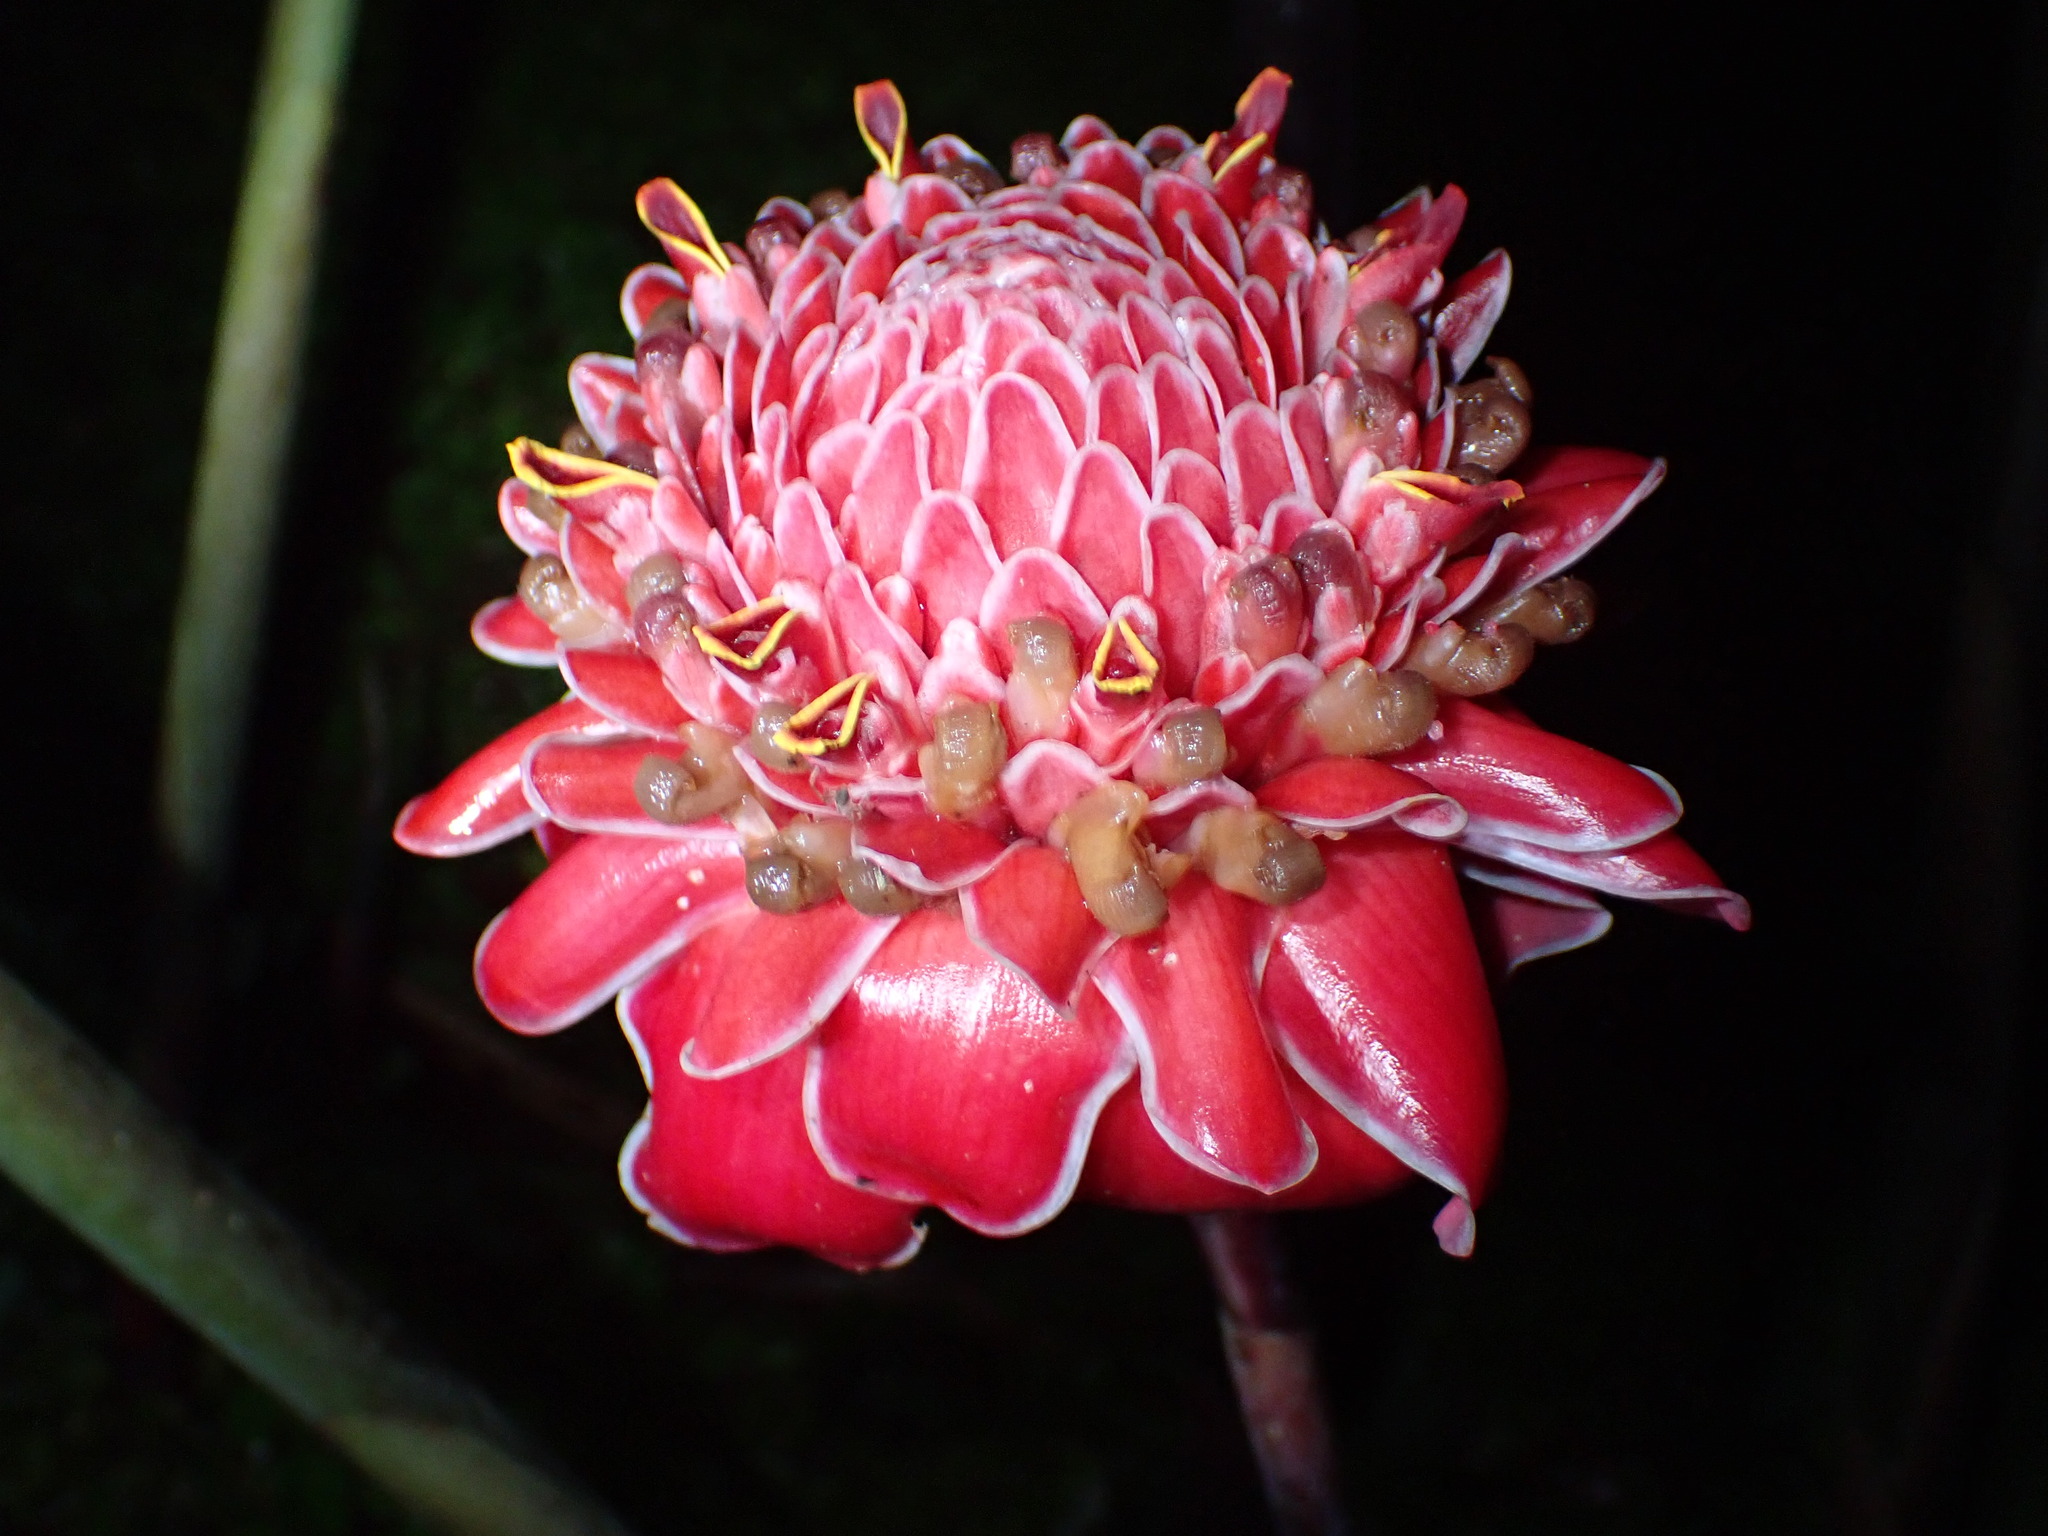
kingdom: Plantae
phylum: Tracheophyta
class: Liliopsida
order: Zingiberales
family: Zingiberaceae
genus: Etlingera
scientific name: Etlingera elatior
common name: Philippine waxflower
